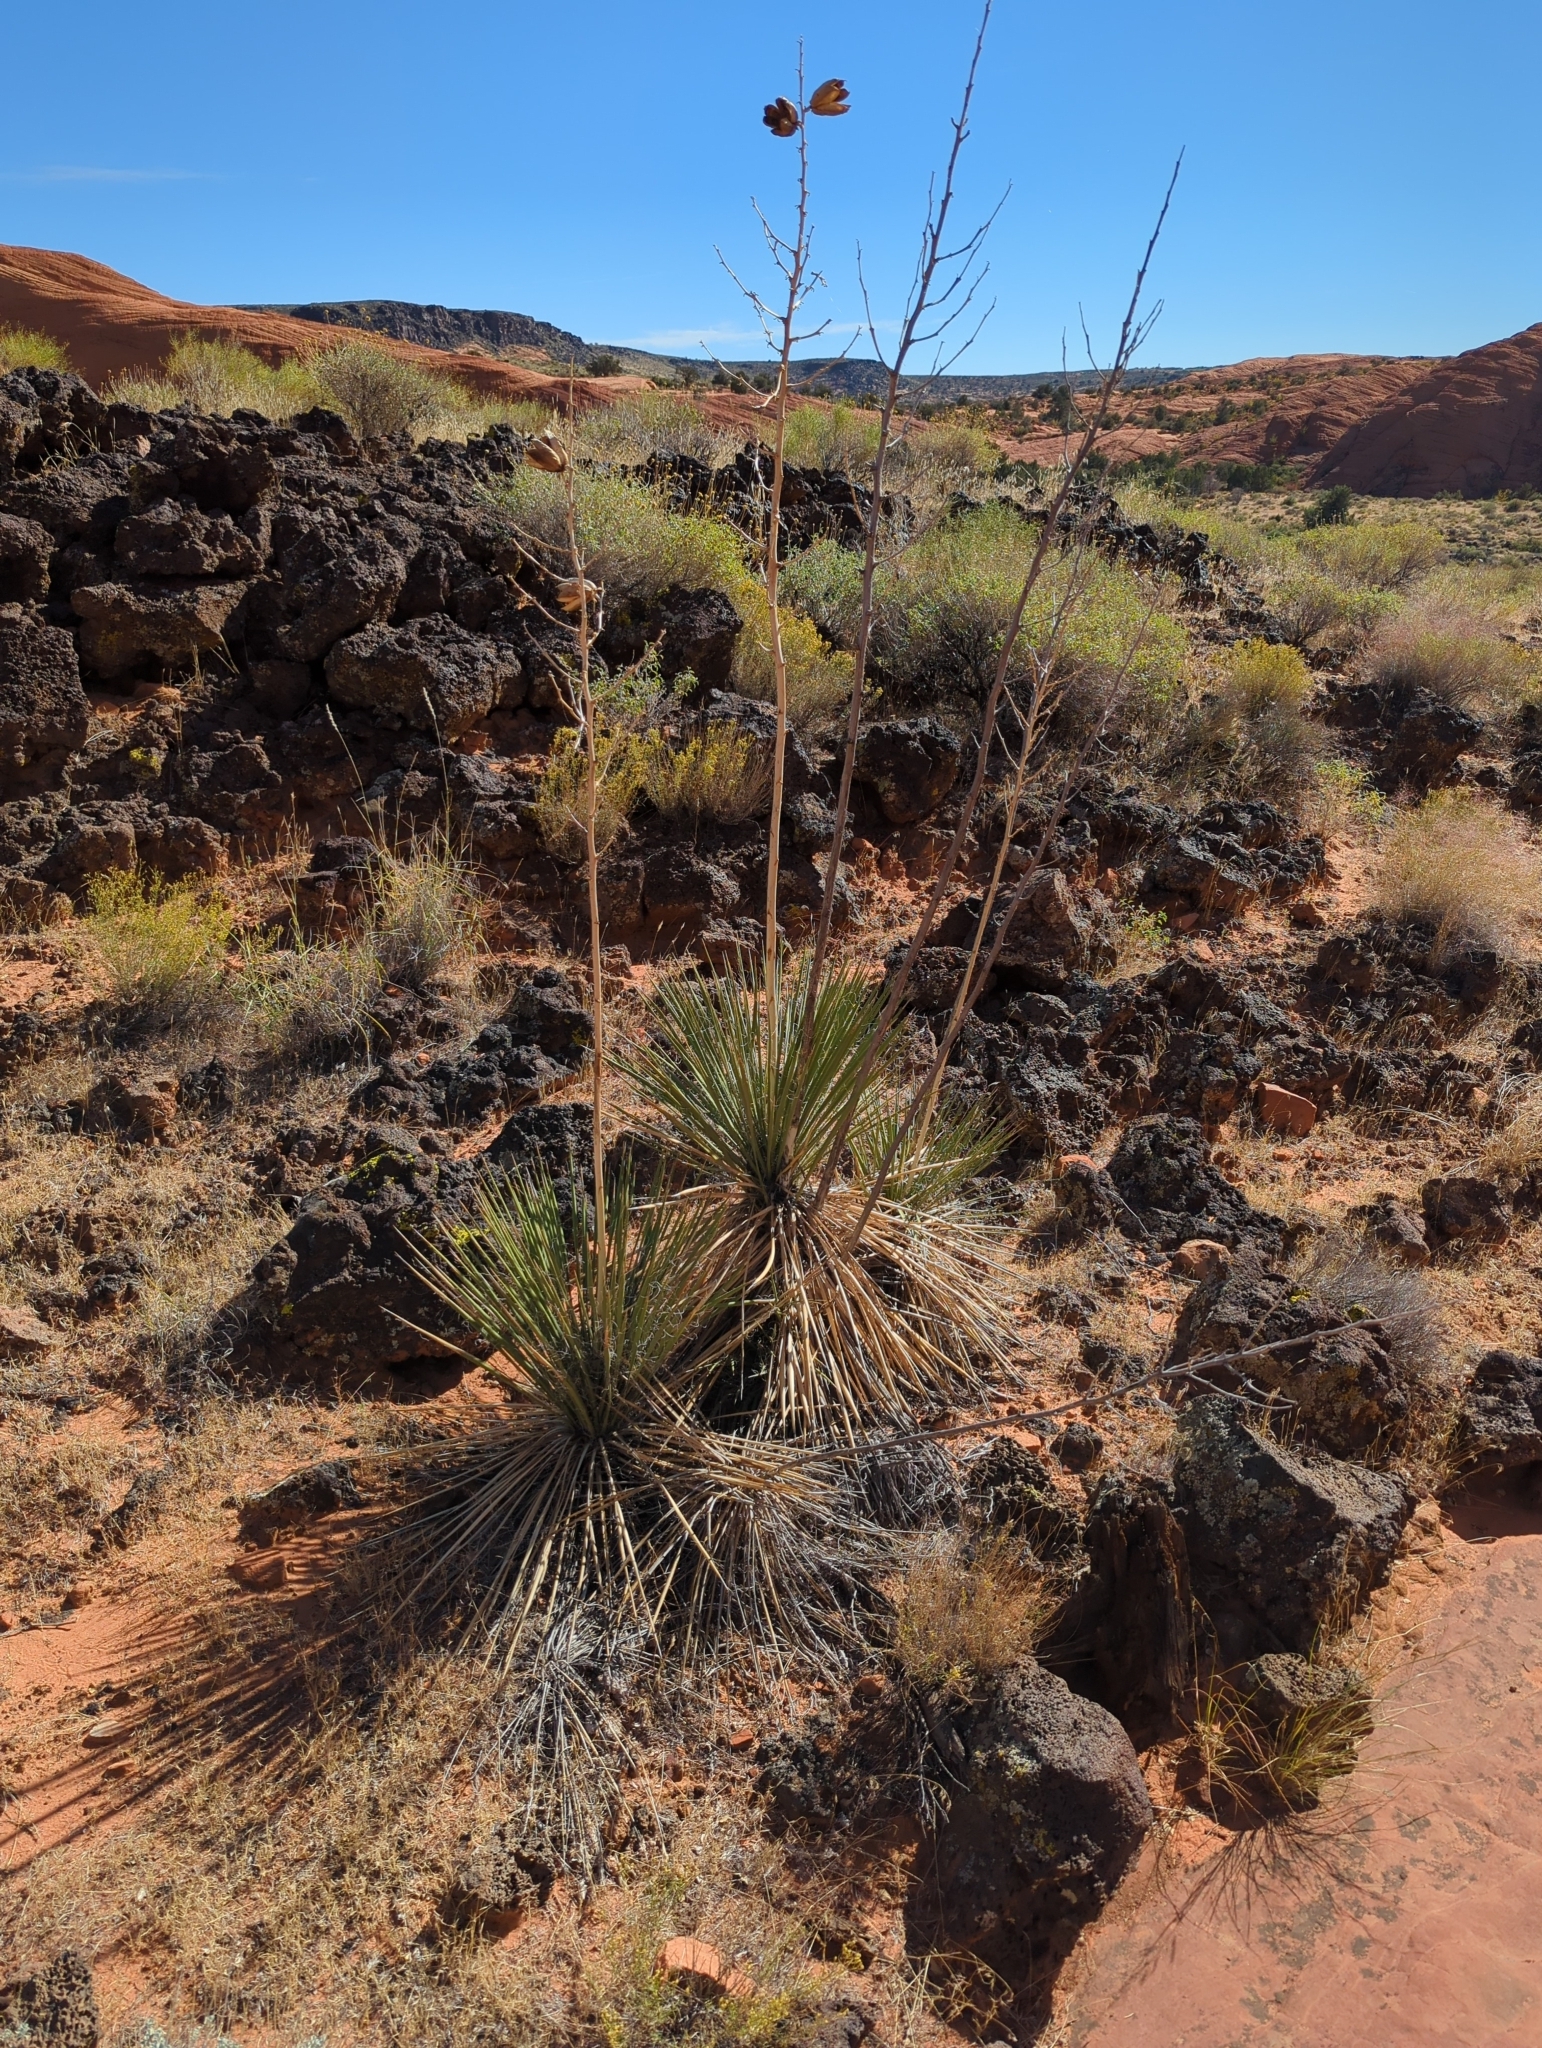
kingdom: Plantae
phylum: Tracheophyta
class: Liliopsida
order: Asparagales
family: Asparagaceae
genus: Yucca
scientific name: Yucca utahensis
